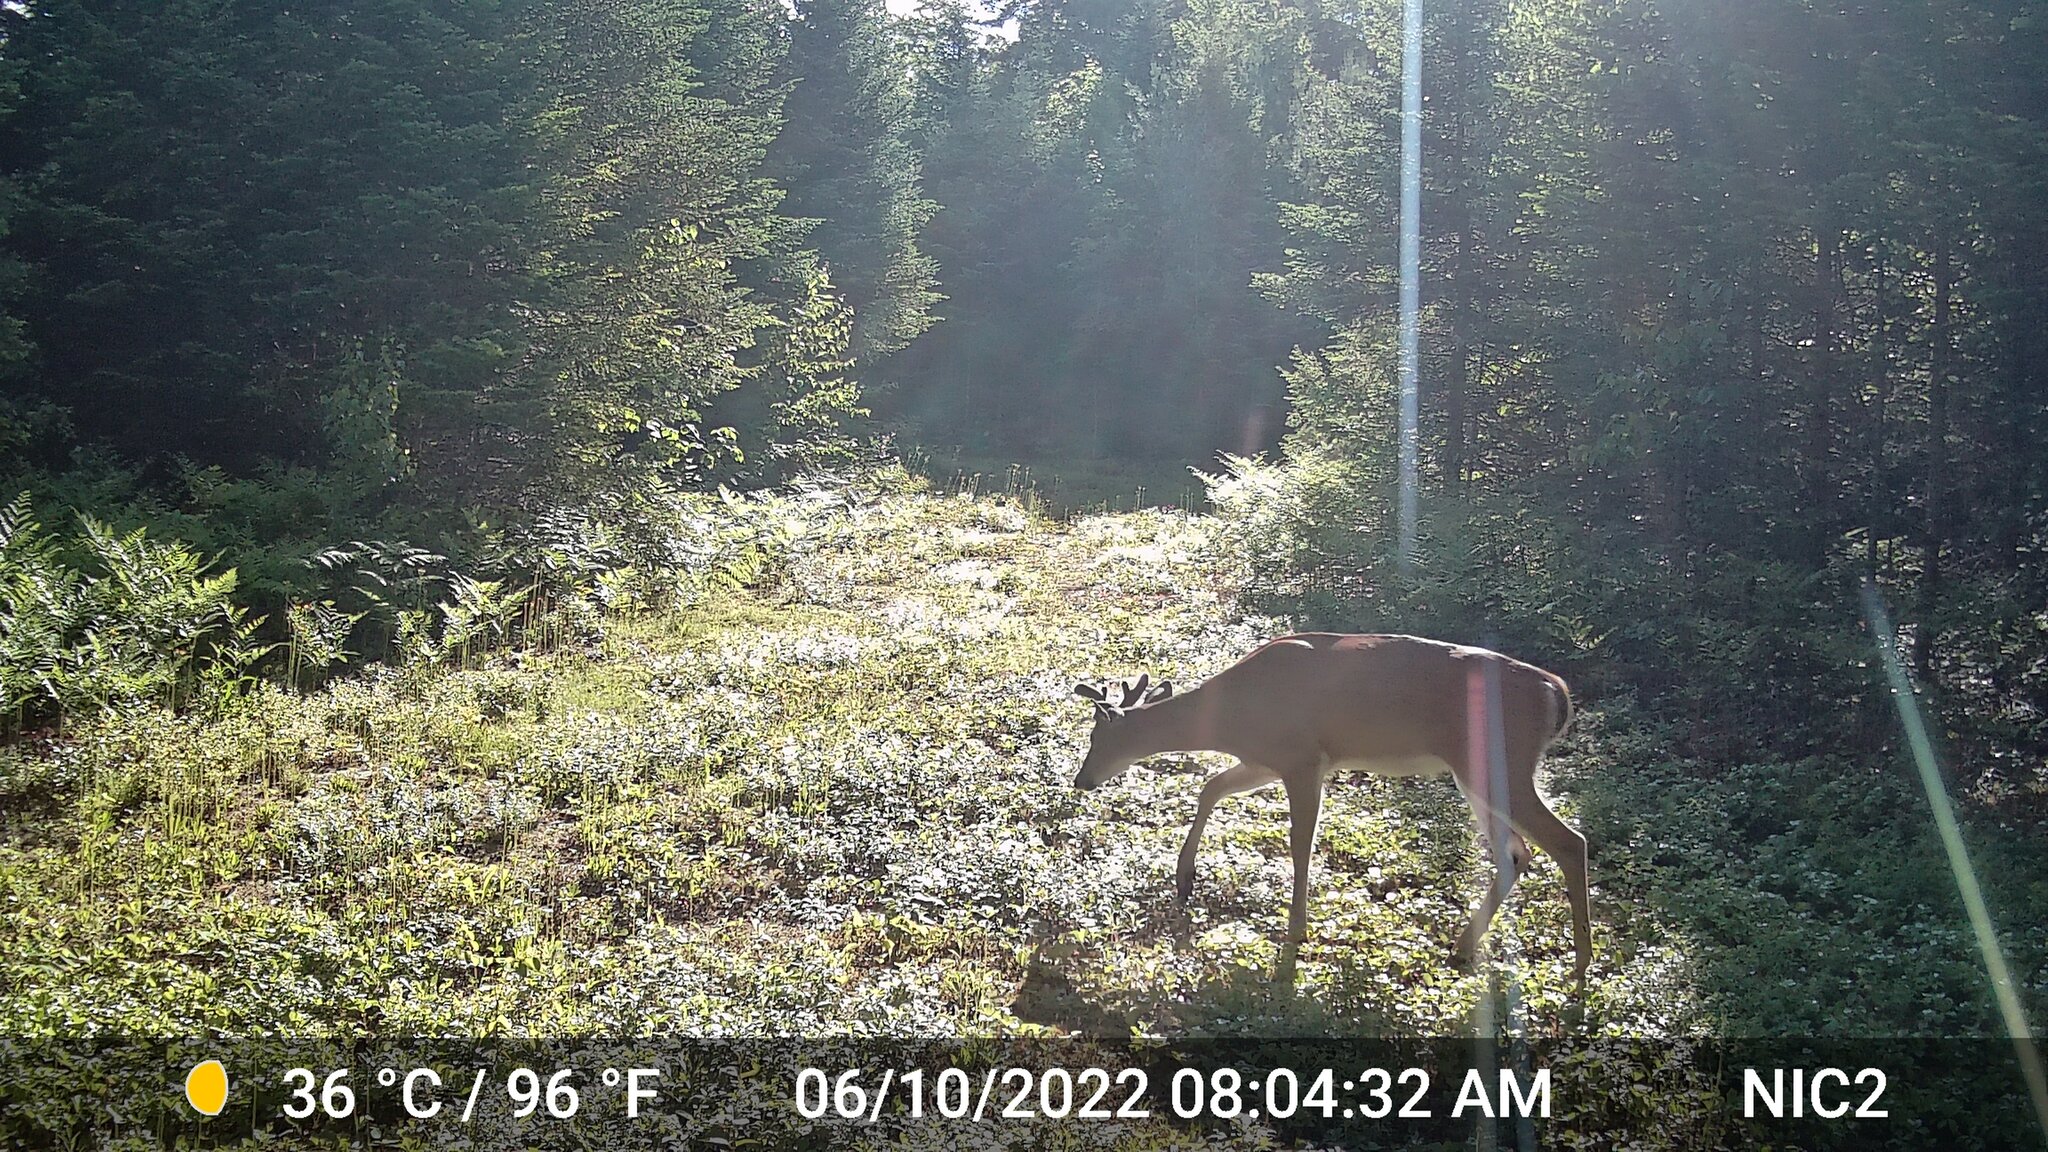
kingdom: Animalia
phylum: Chordata
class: Mammalia
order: Artiodactyla
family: Cervidae
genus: Odocoileus
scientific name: Odocoileus virginianus
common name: White-tailed deer
